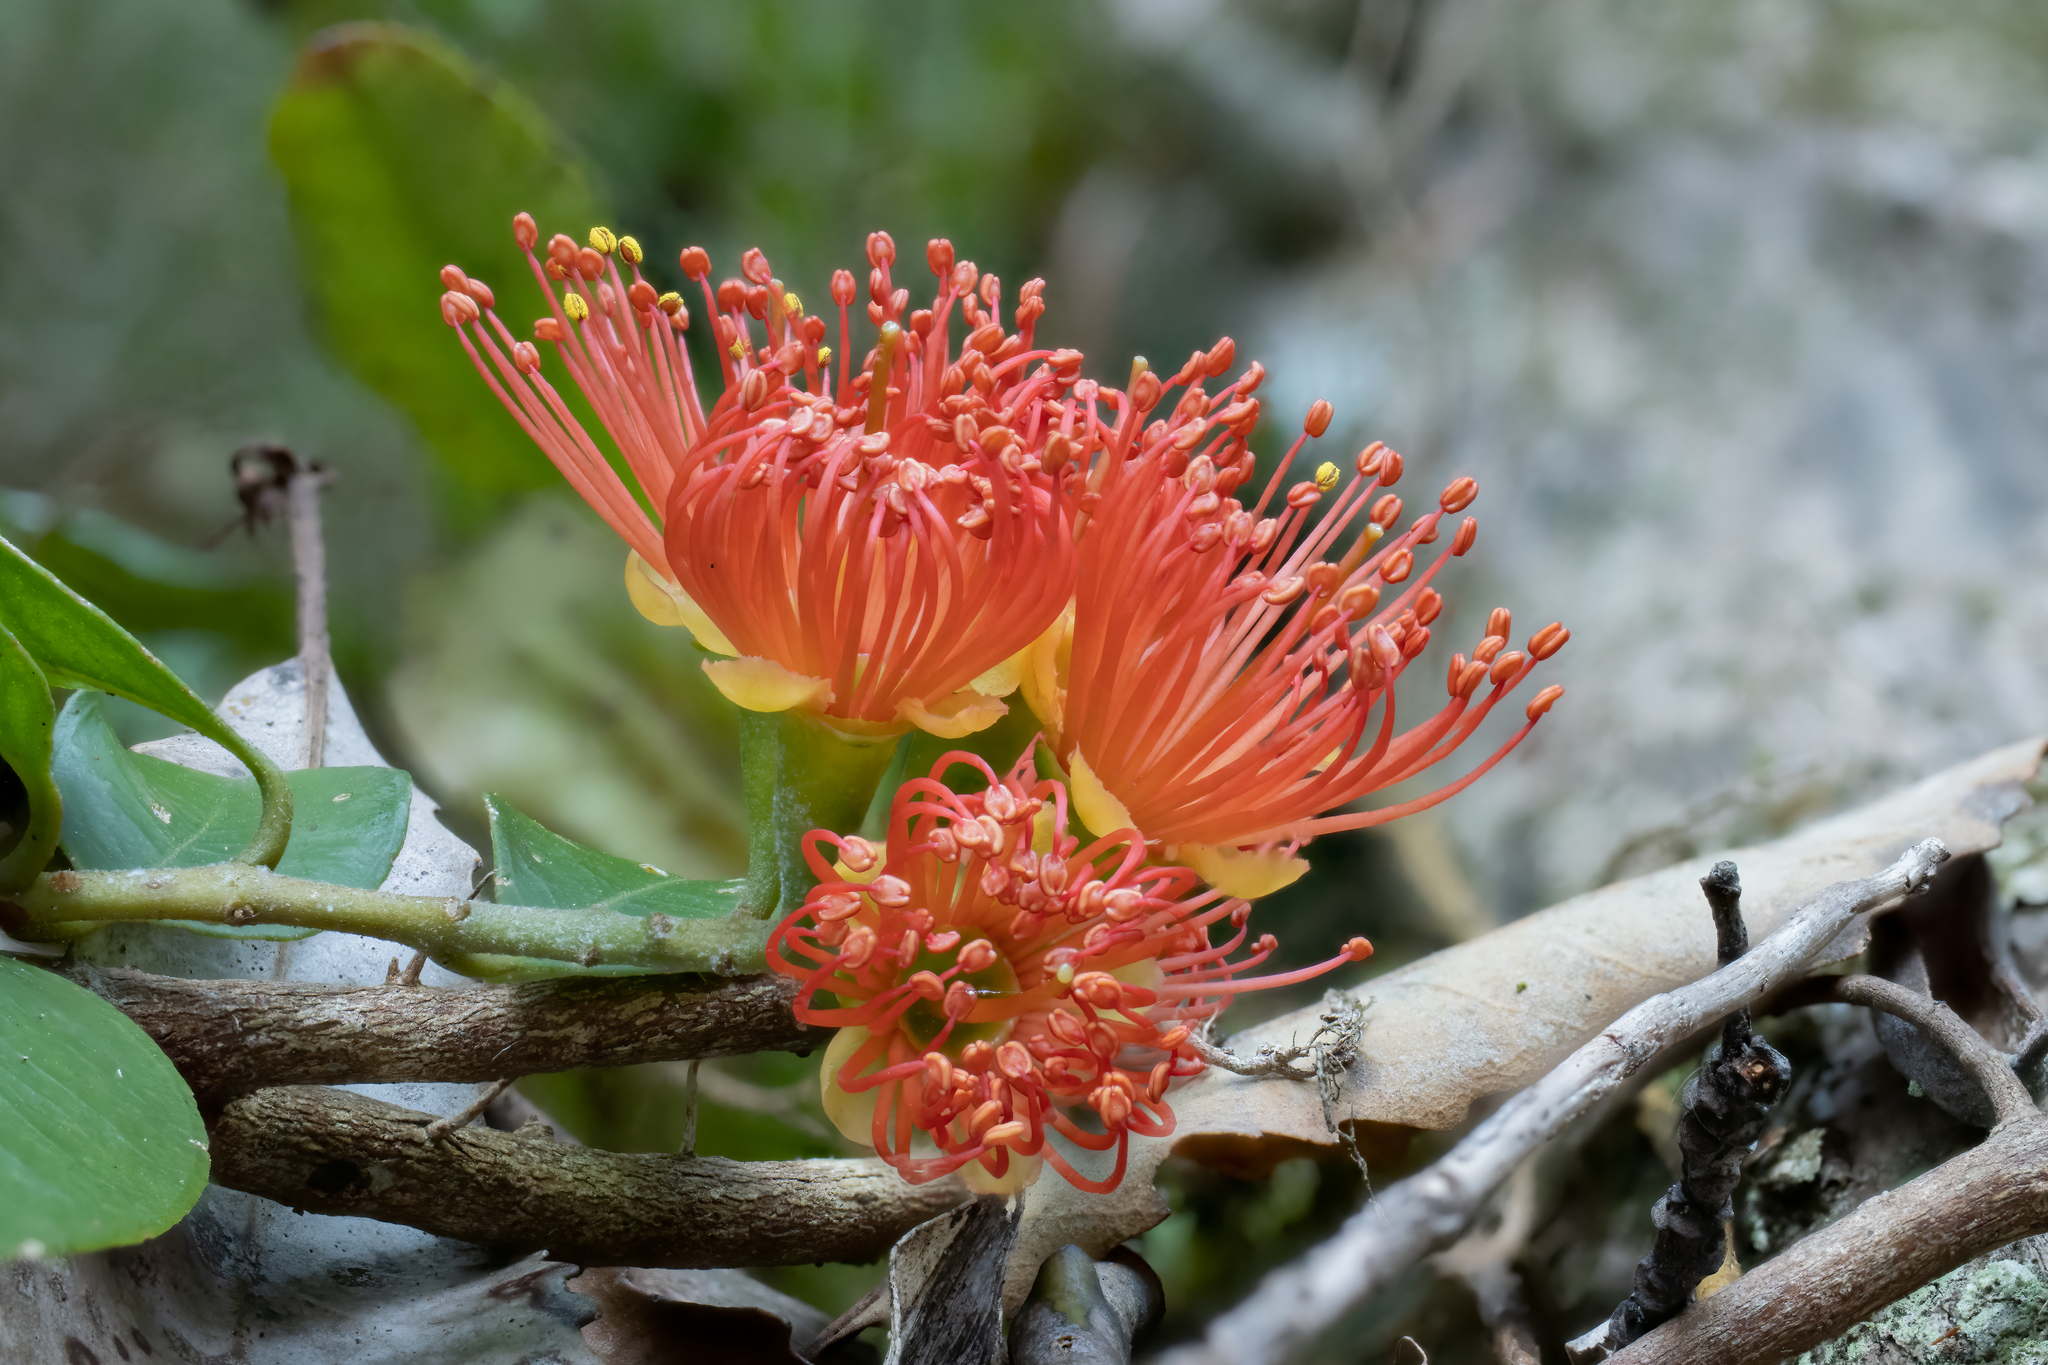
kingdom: Plantae
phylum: Tracheophyta
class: Magnoliopsida
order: Myrtales
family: Myrtaceae
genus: Metrosideros
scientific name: Metrosideros fulgens
